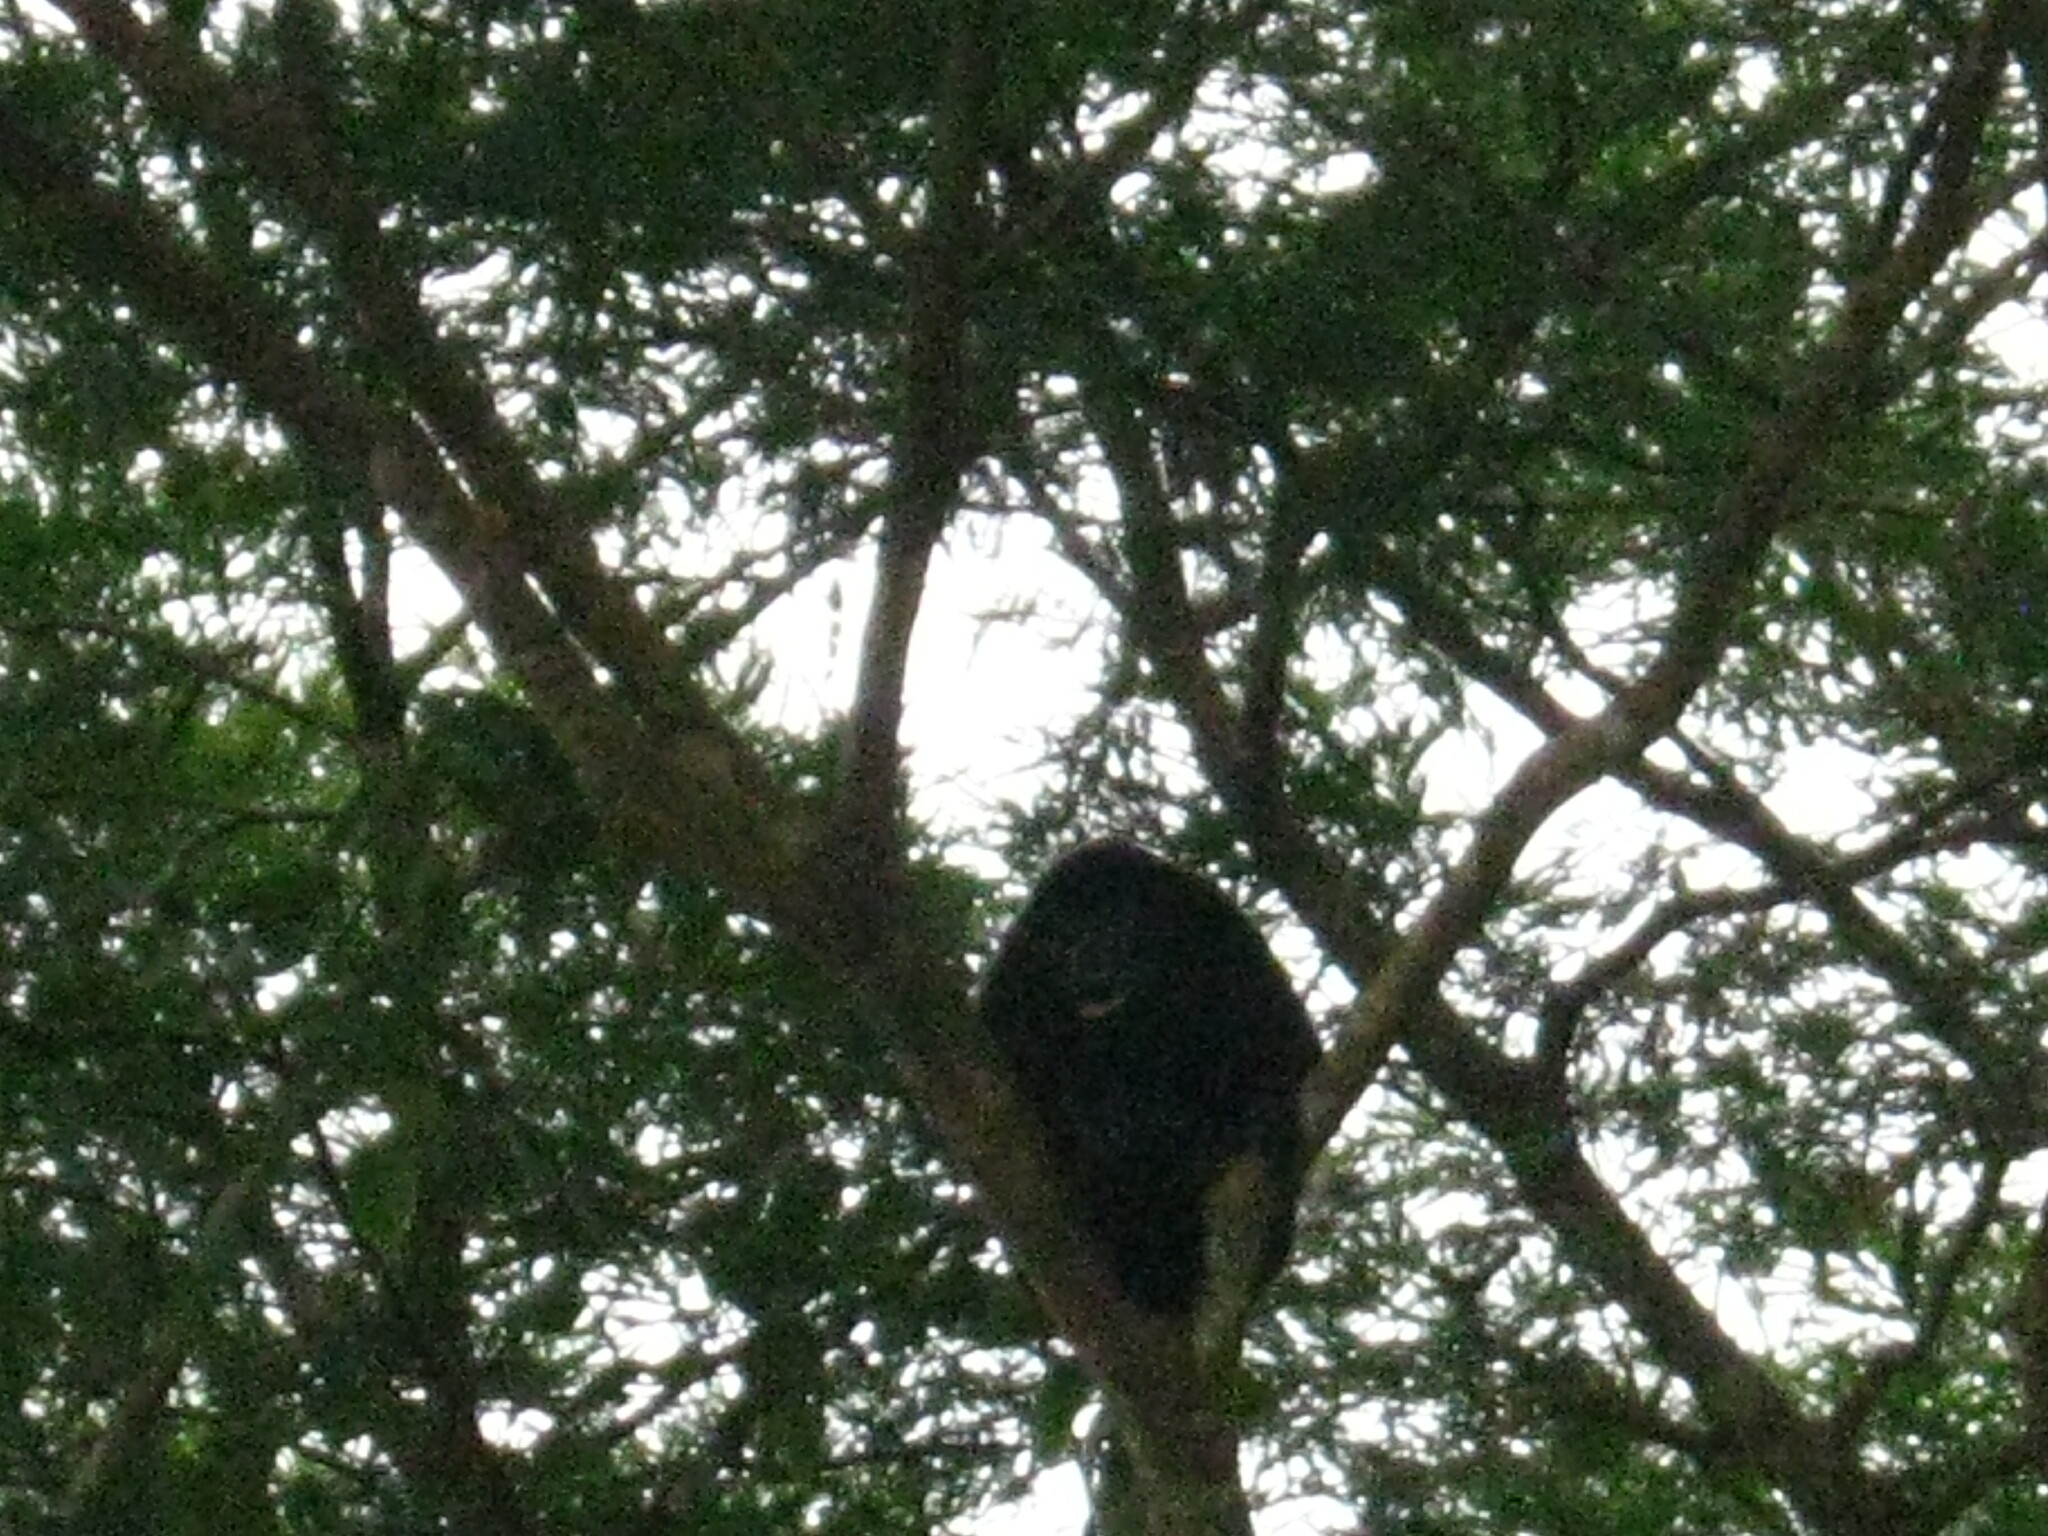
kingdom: Animalia
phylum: Chordata
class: Mammalia
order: Primates
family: Atelidae
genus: Alouatta
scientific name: Alouatta palliata
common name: Mantled howler
